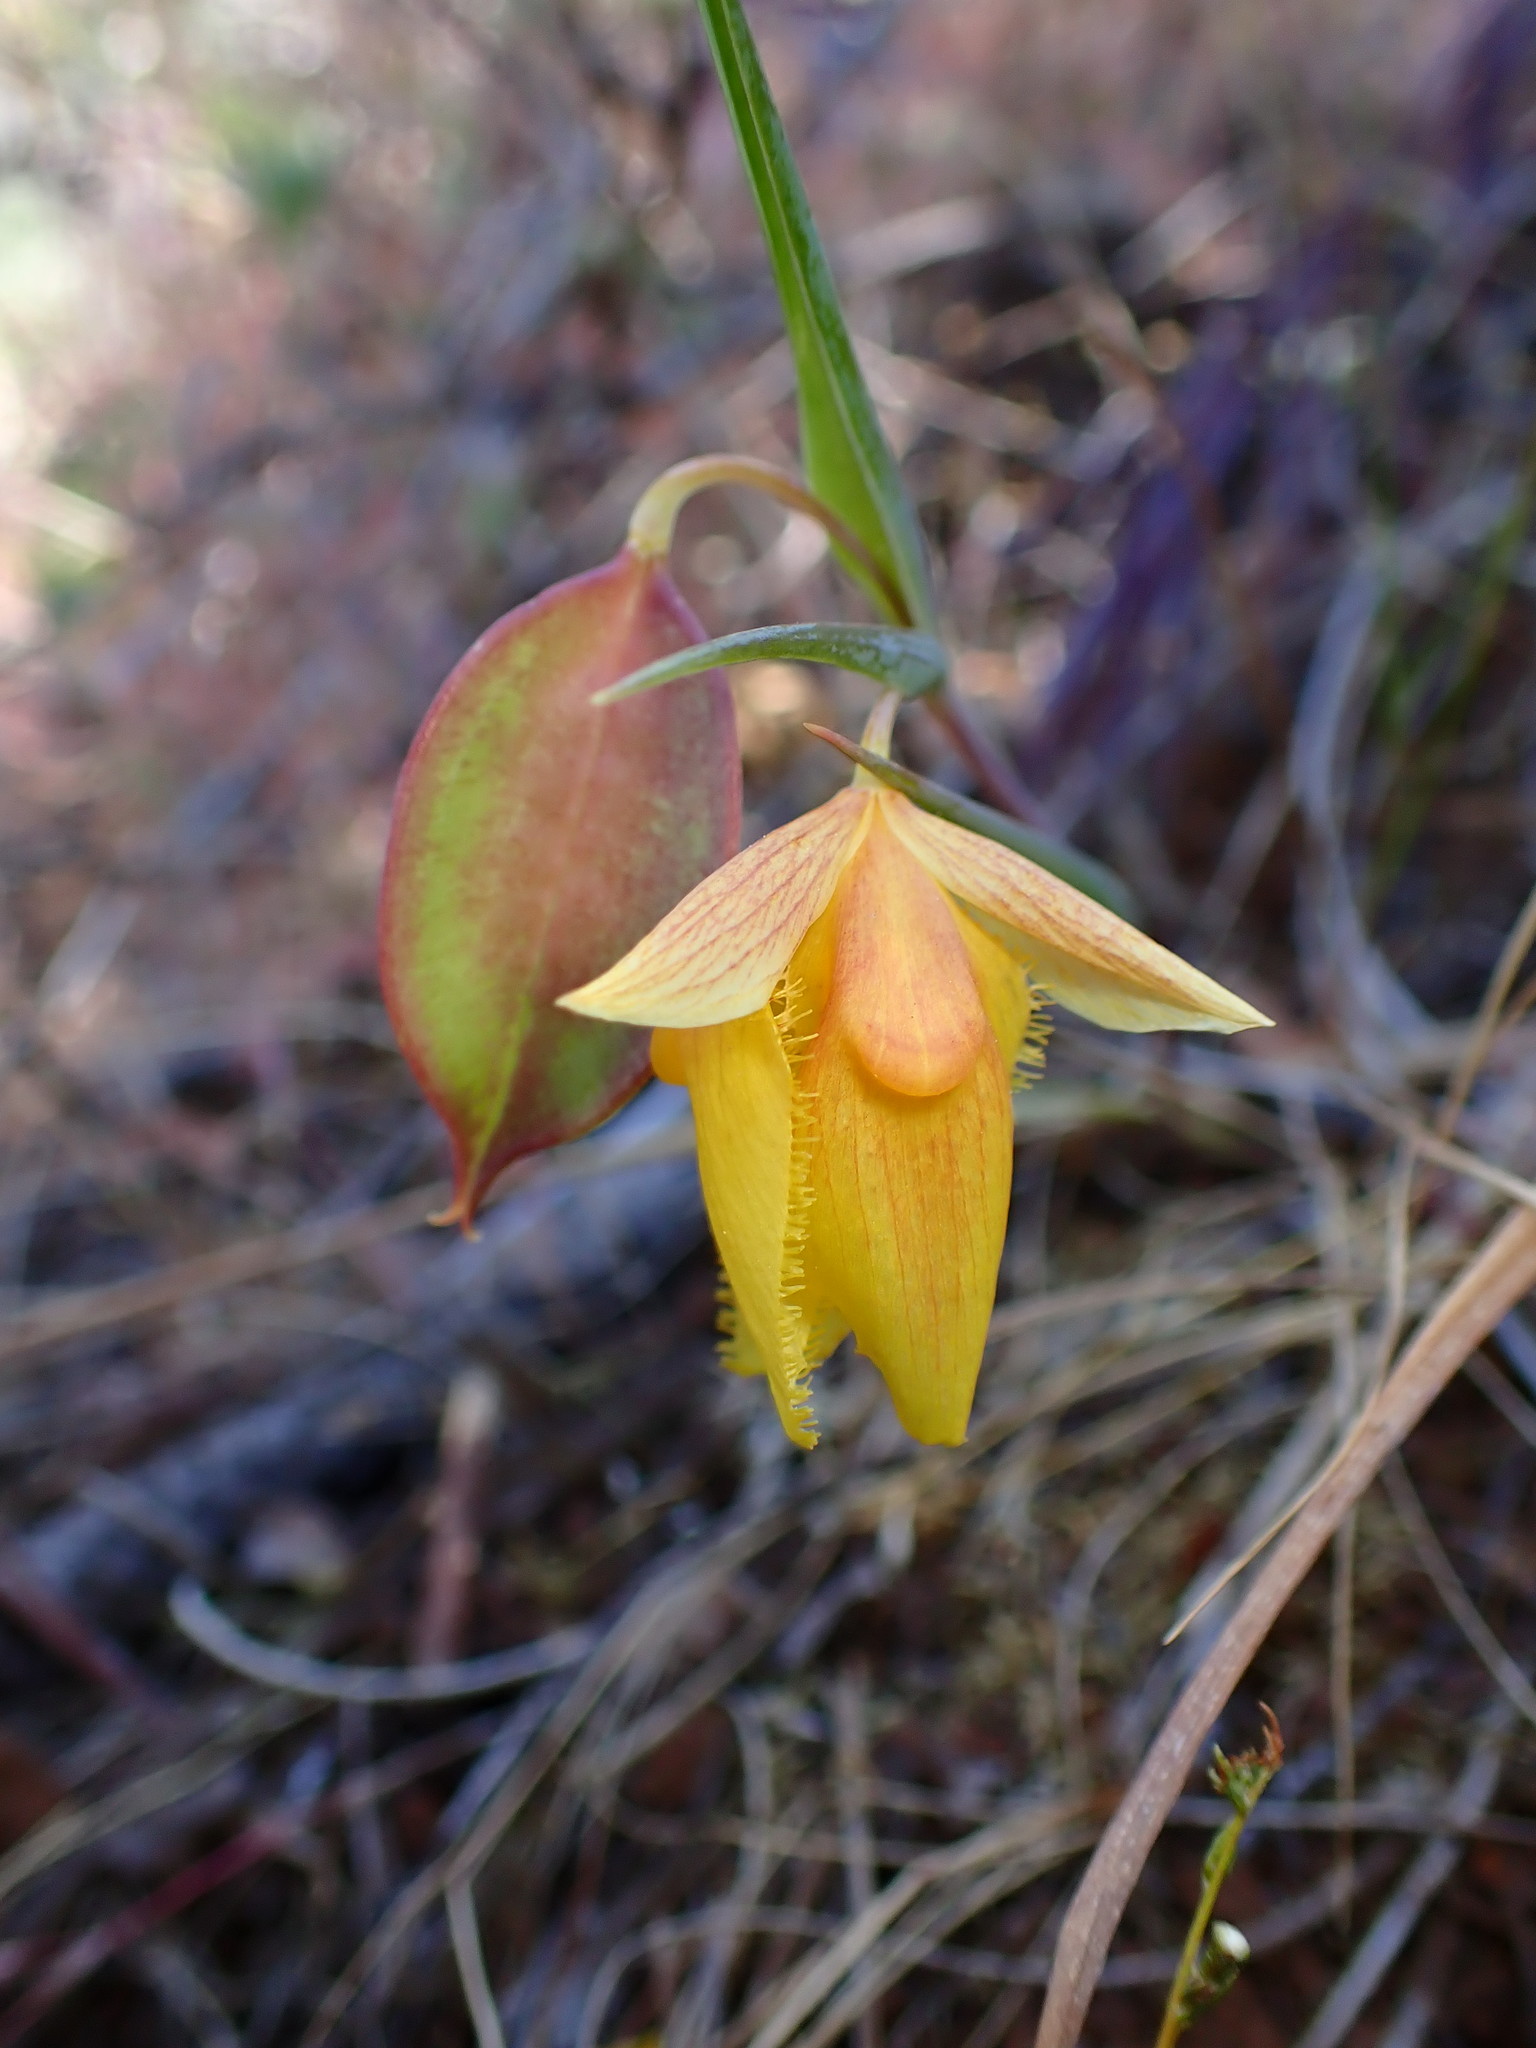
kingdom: Plantae
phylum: Tracheophyta
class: Liliopsida
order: Liliales
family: Liliaceae
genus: Calochortus
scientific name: Calochortus pulchellus
